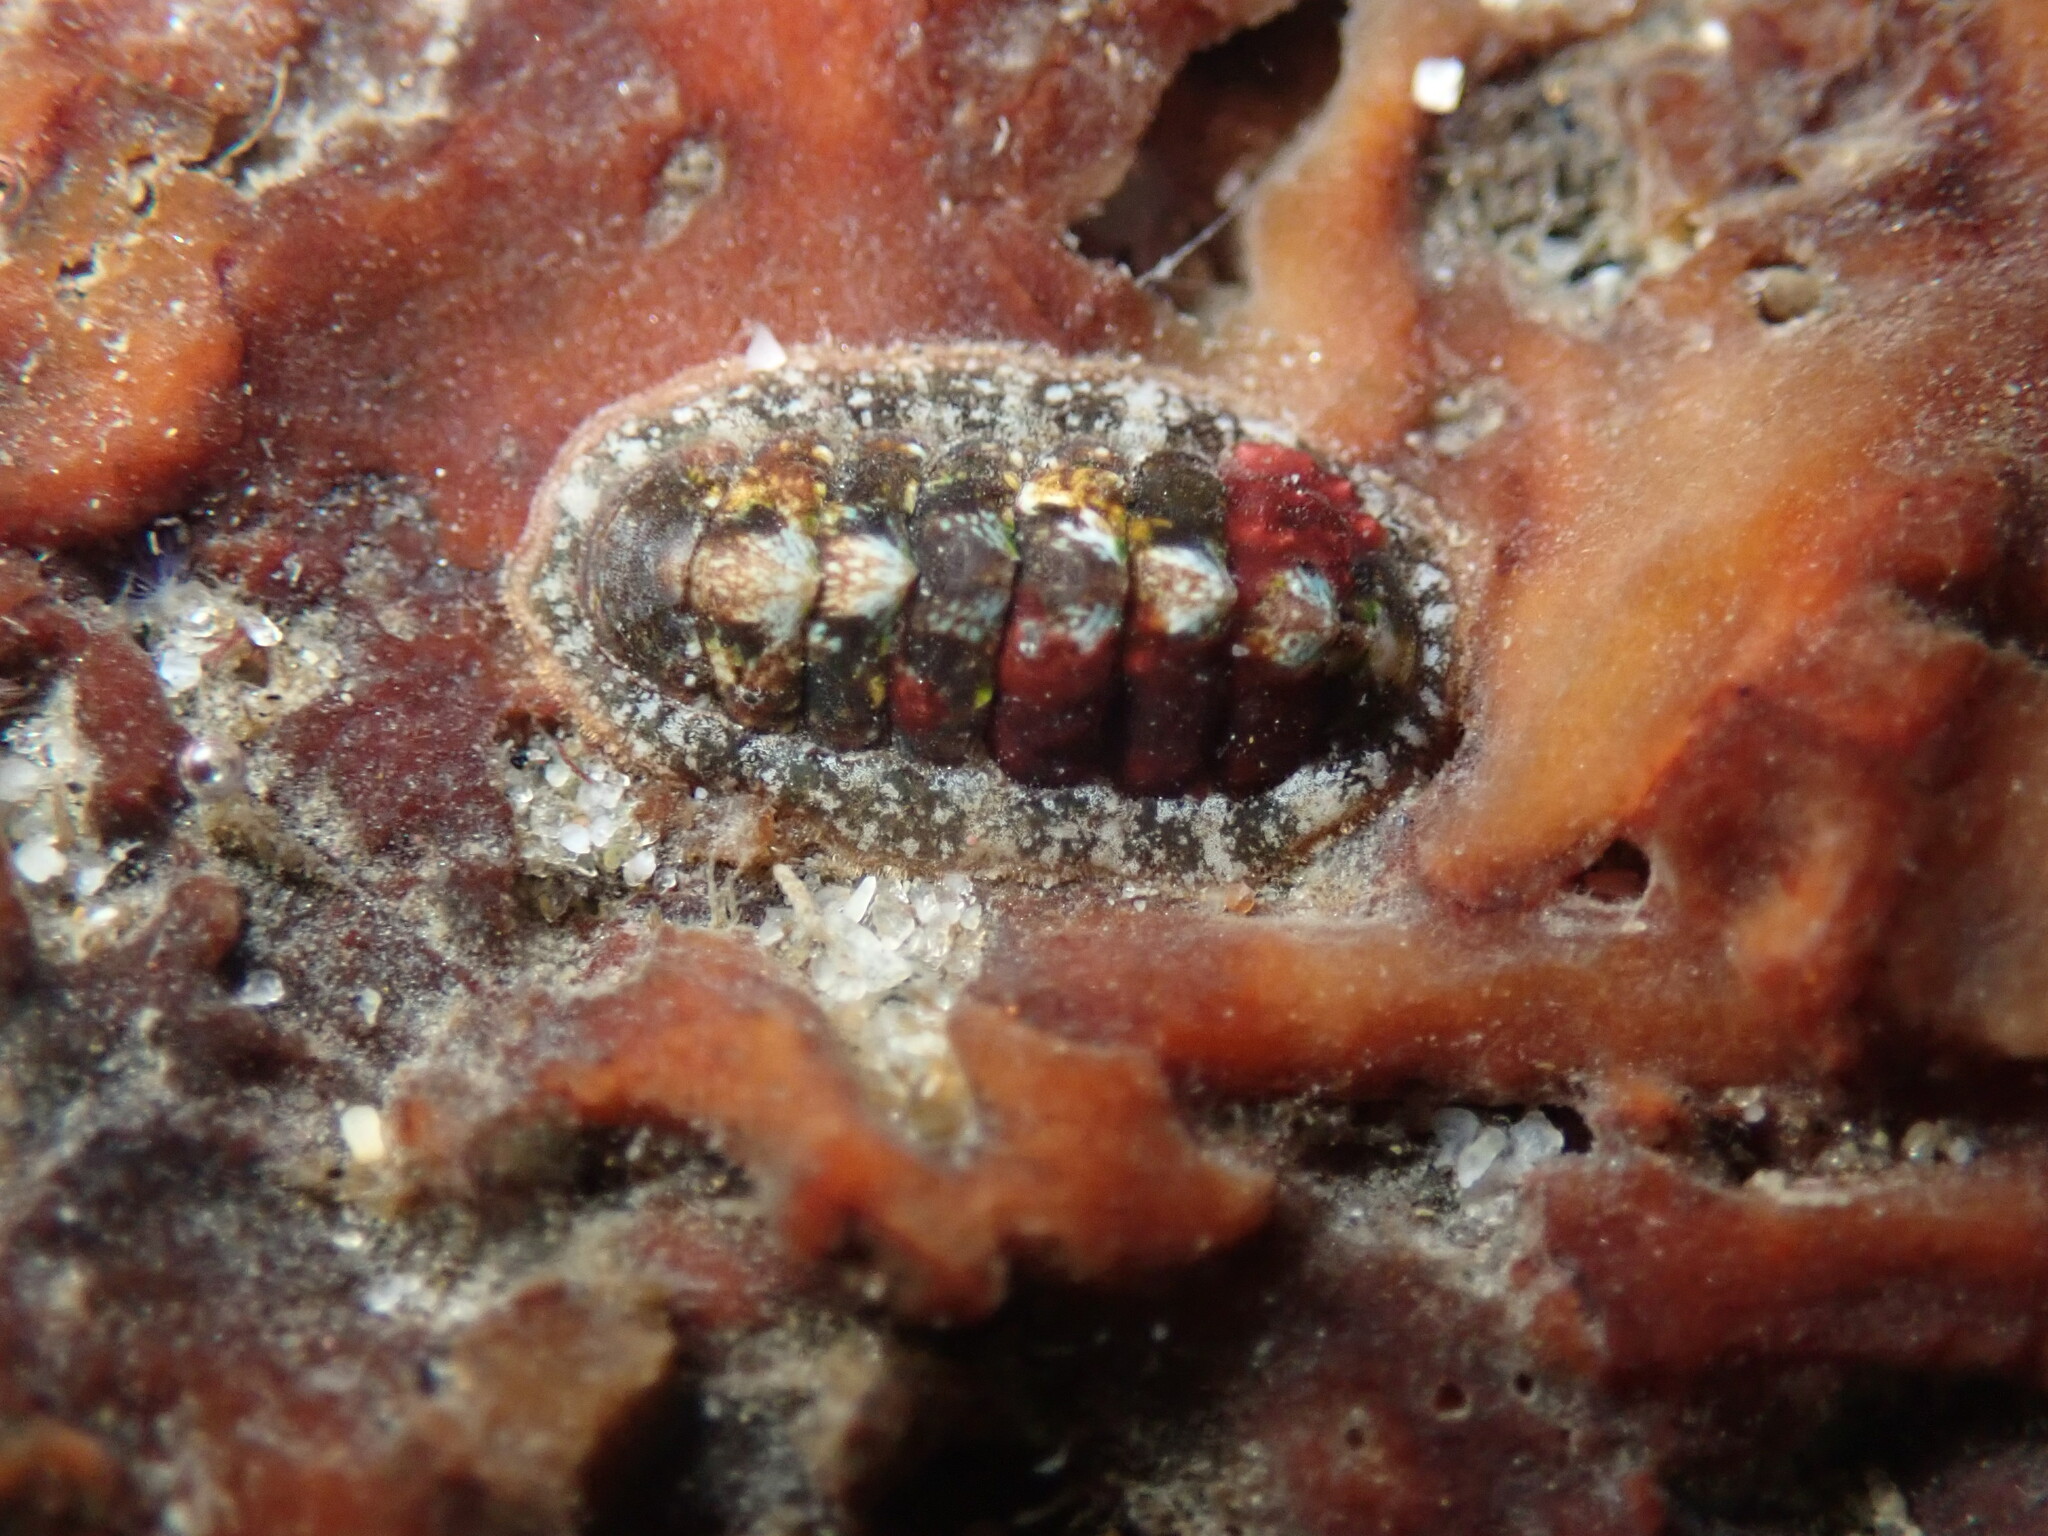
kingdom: Animalia
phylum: Mollusca
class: Polyplacophora
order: Chitonida
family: Tonicellidae
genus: Cyanoplax
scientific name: Cyanoplax dentiens
